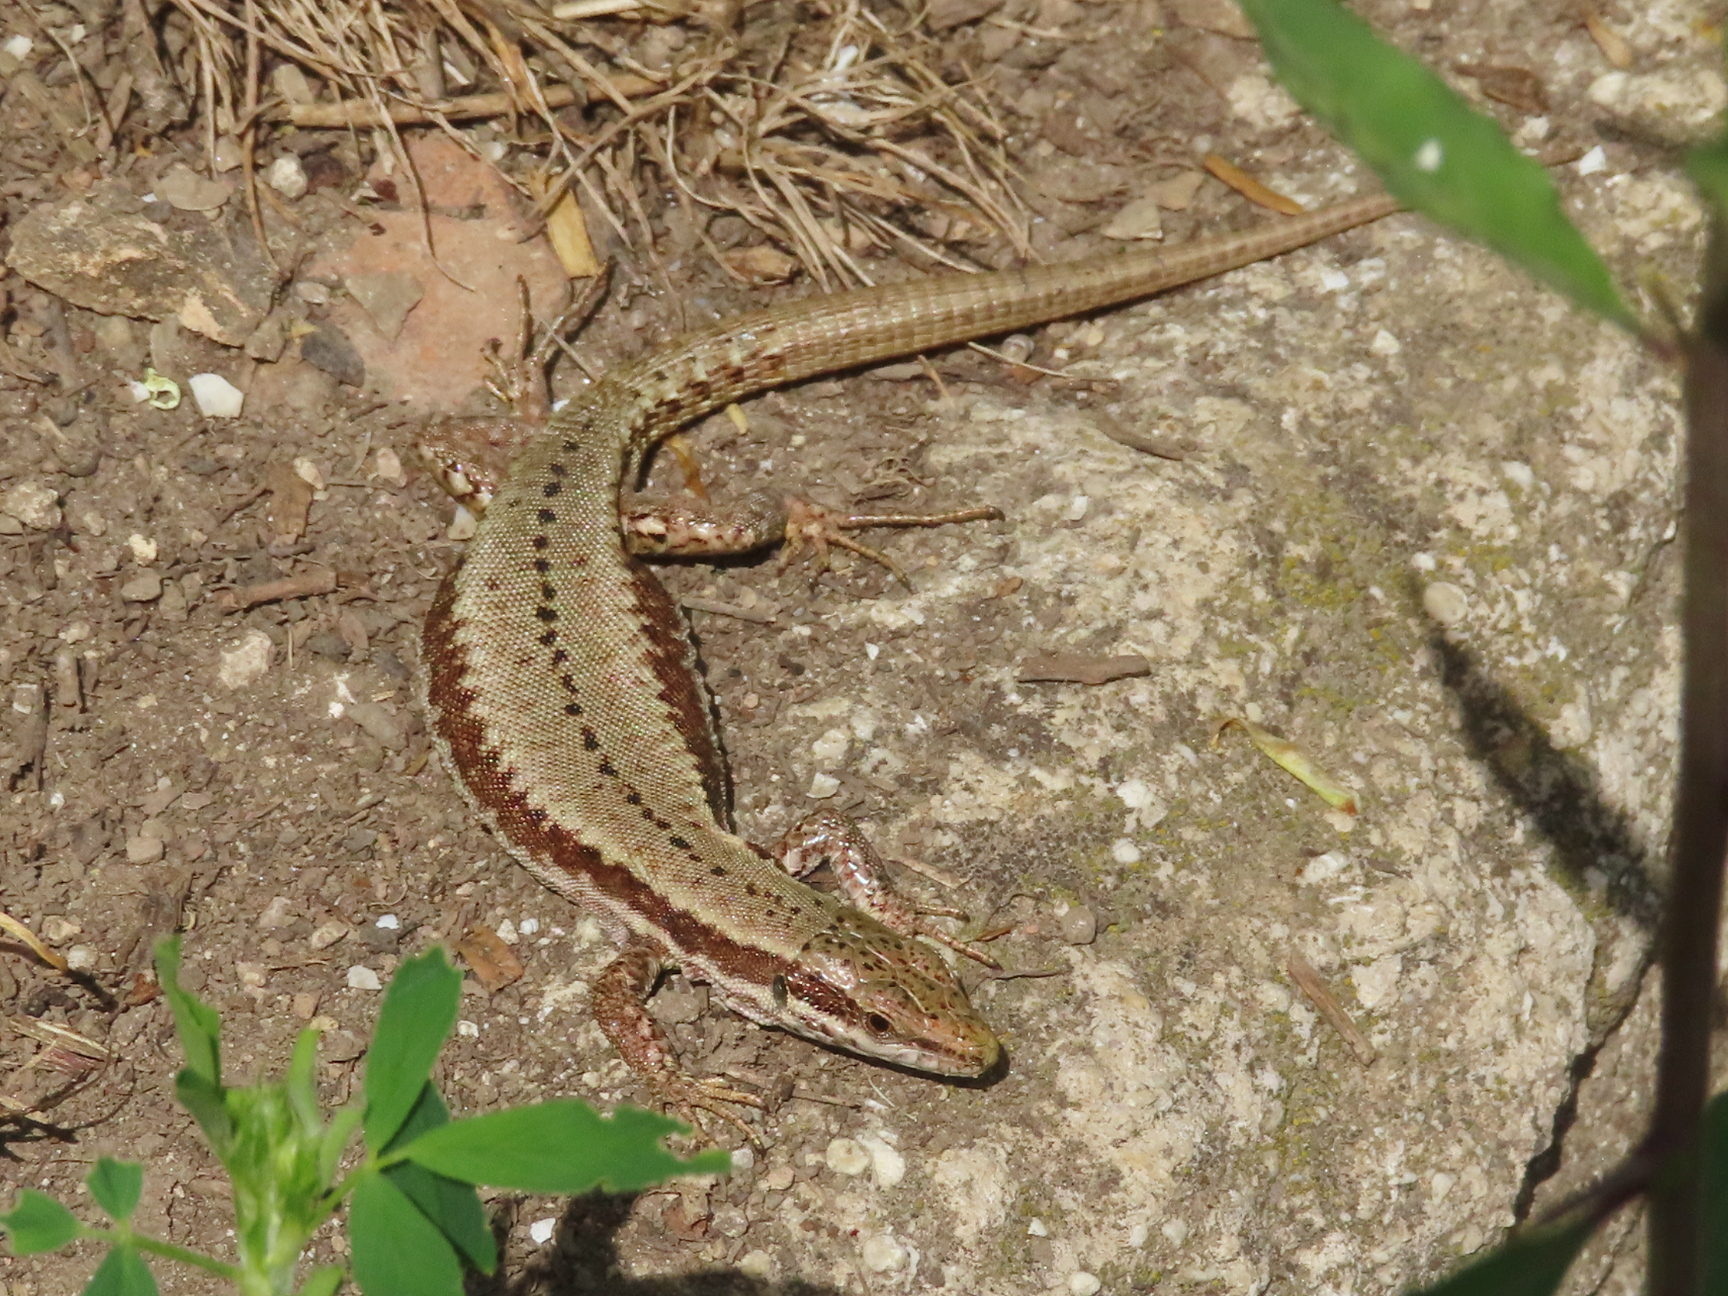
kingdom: Animalia
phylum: Chordata
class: Squamata
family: Lacertidae
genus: Podarcis
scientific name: Podarcis muralis
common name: Common wall lizard
